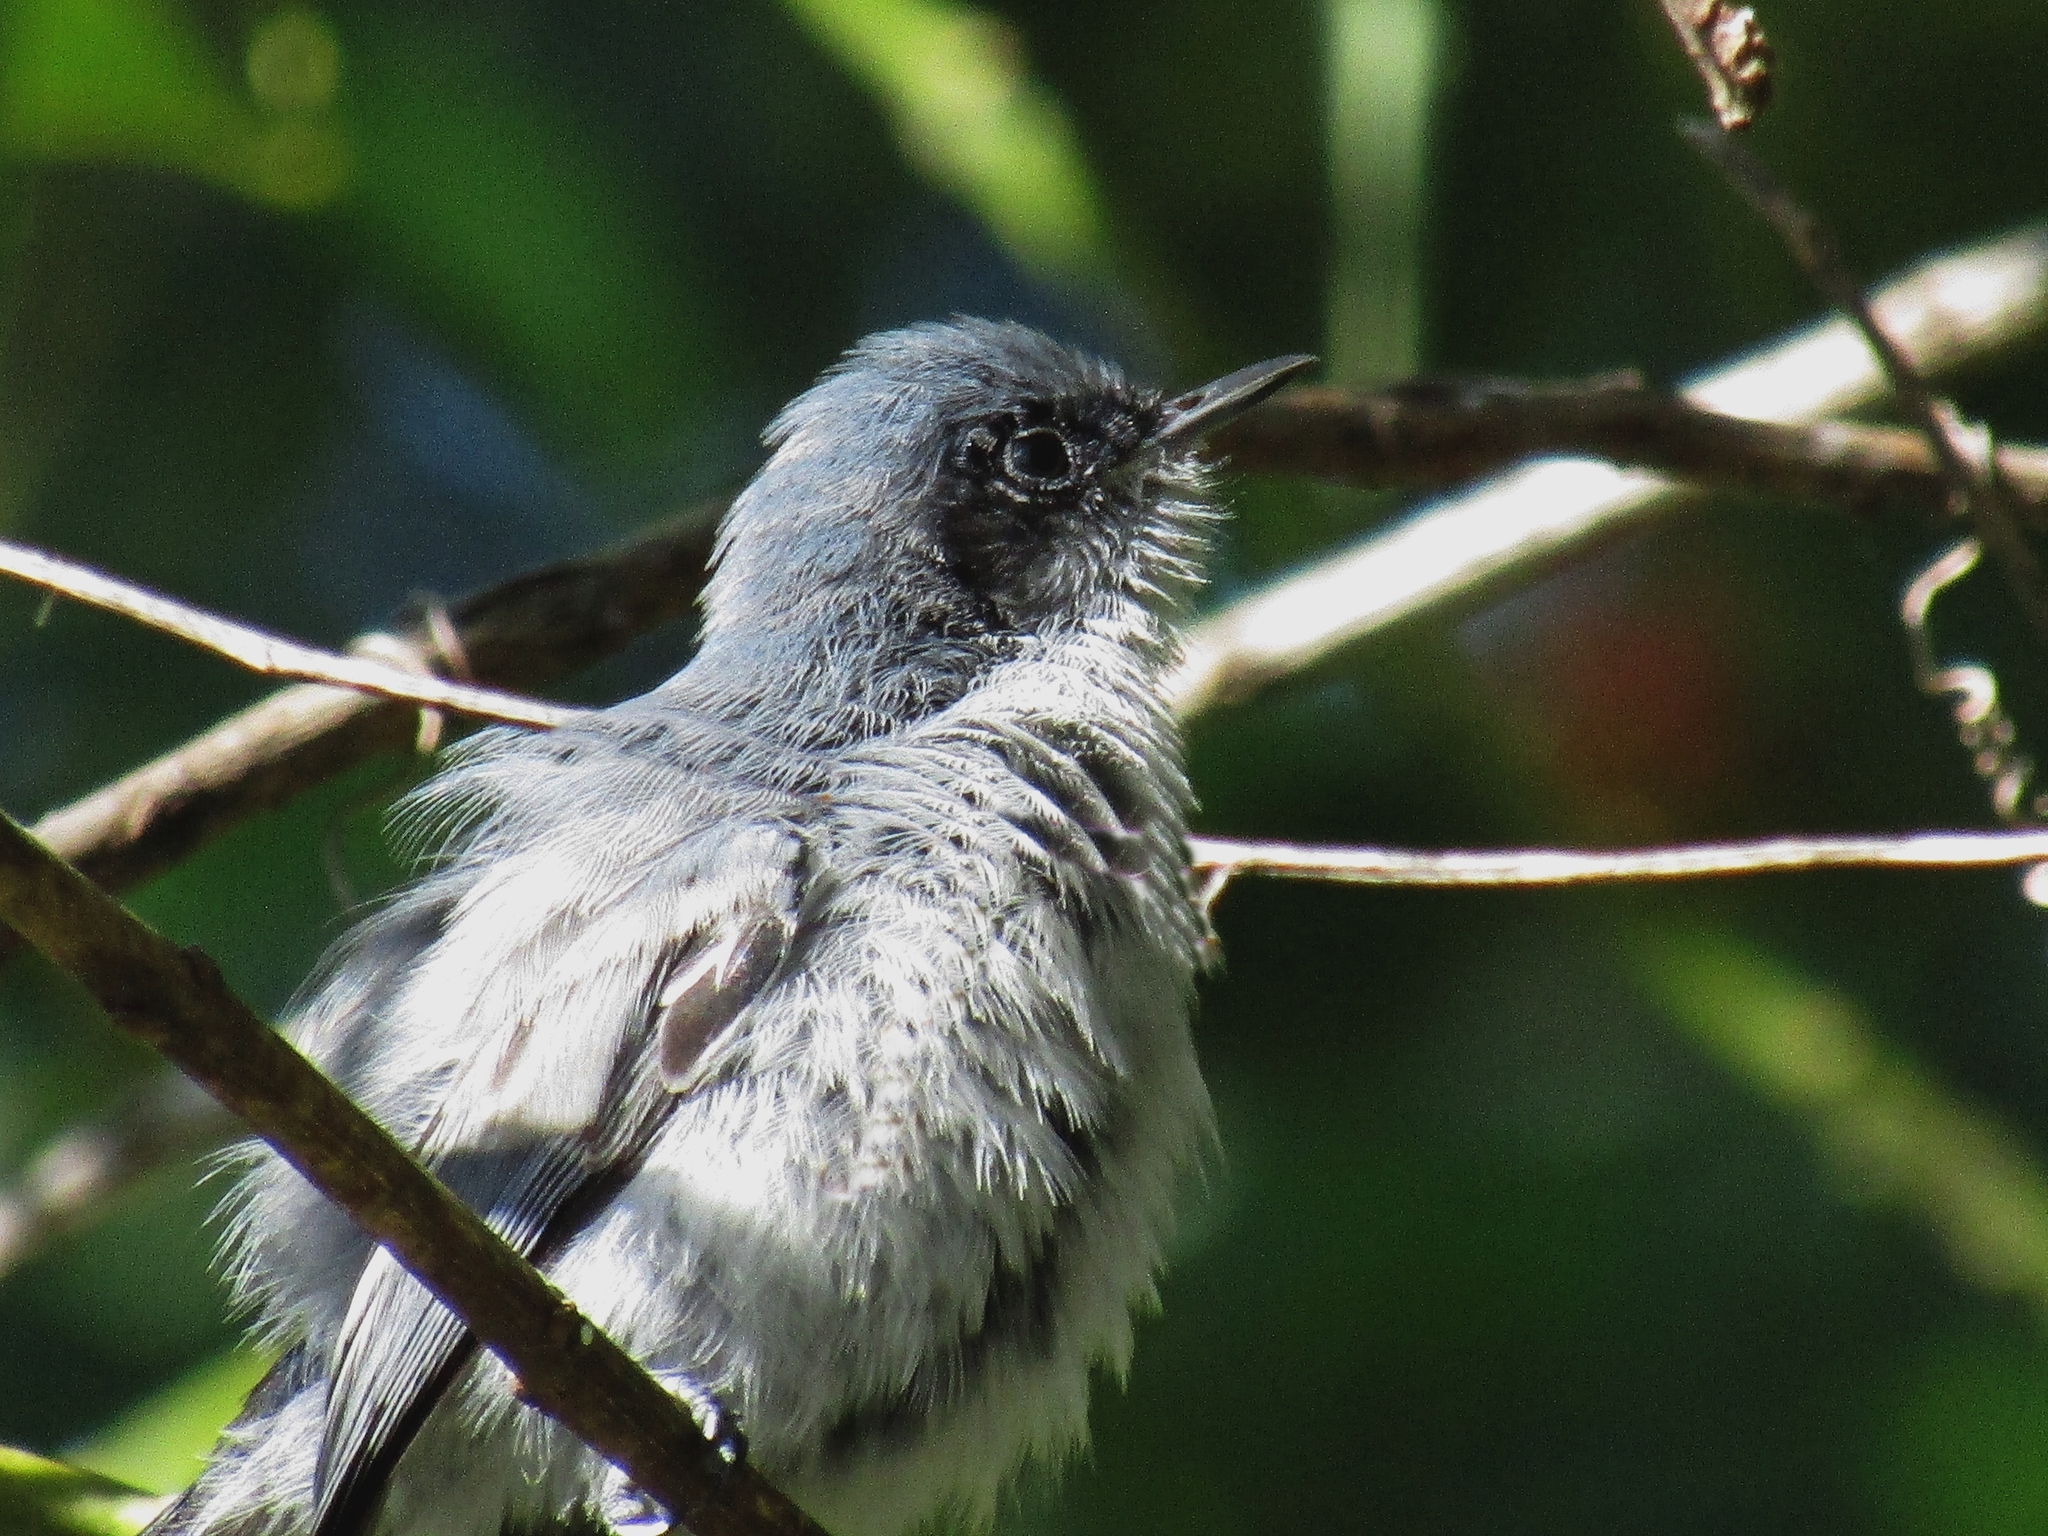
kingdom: Animalia
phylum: Chordata
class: Aves
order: Passeriformes
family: Polioptilidae
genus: Polioptila
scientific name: Polioptila dumicola
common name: Masked gnatcatcher
